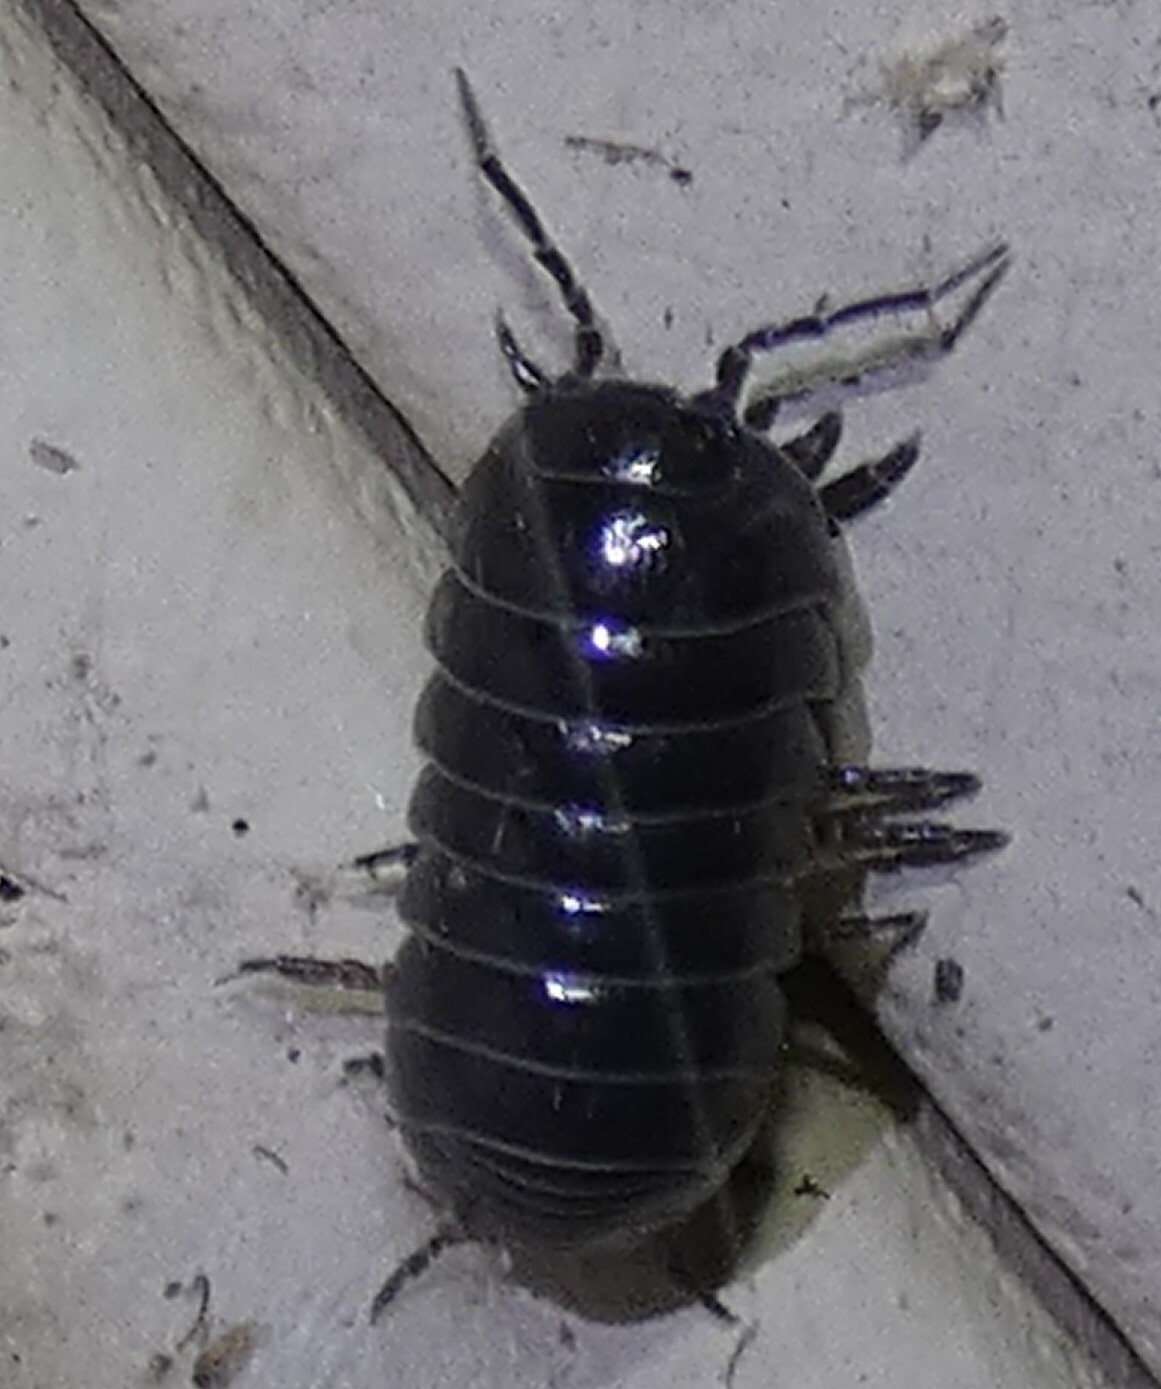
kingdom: Animalia
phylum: Arthropoda
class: Malacostraca
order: Isopoda
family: Armadillidiidae
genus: Armadillidium
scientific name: Armadillidium vulgare
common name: Common pill woodlouse
